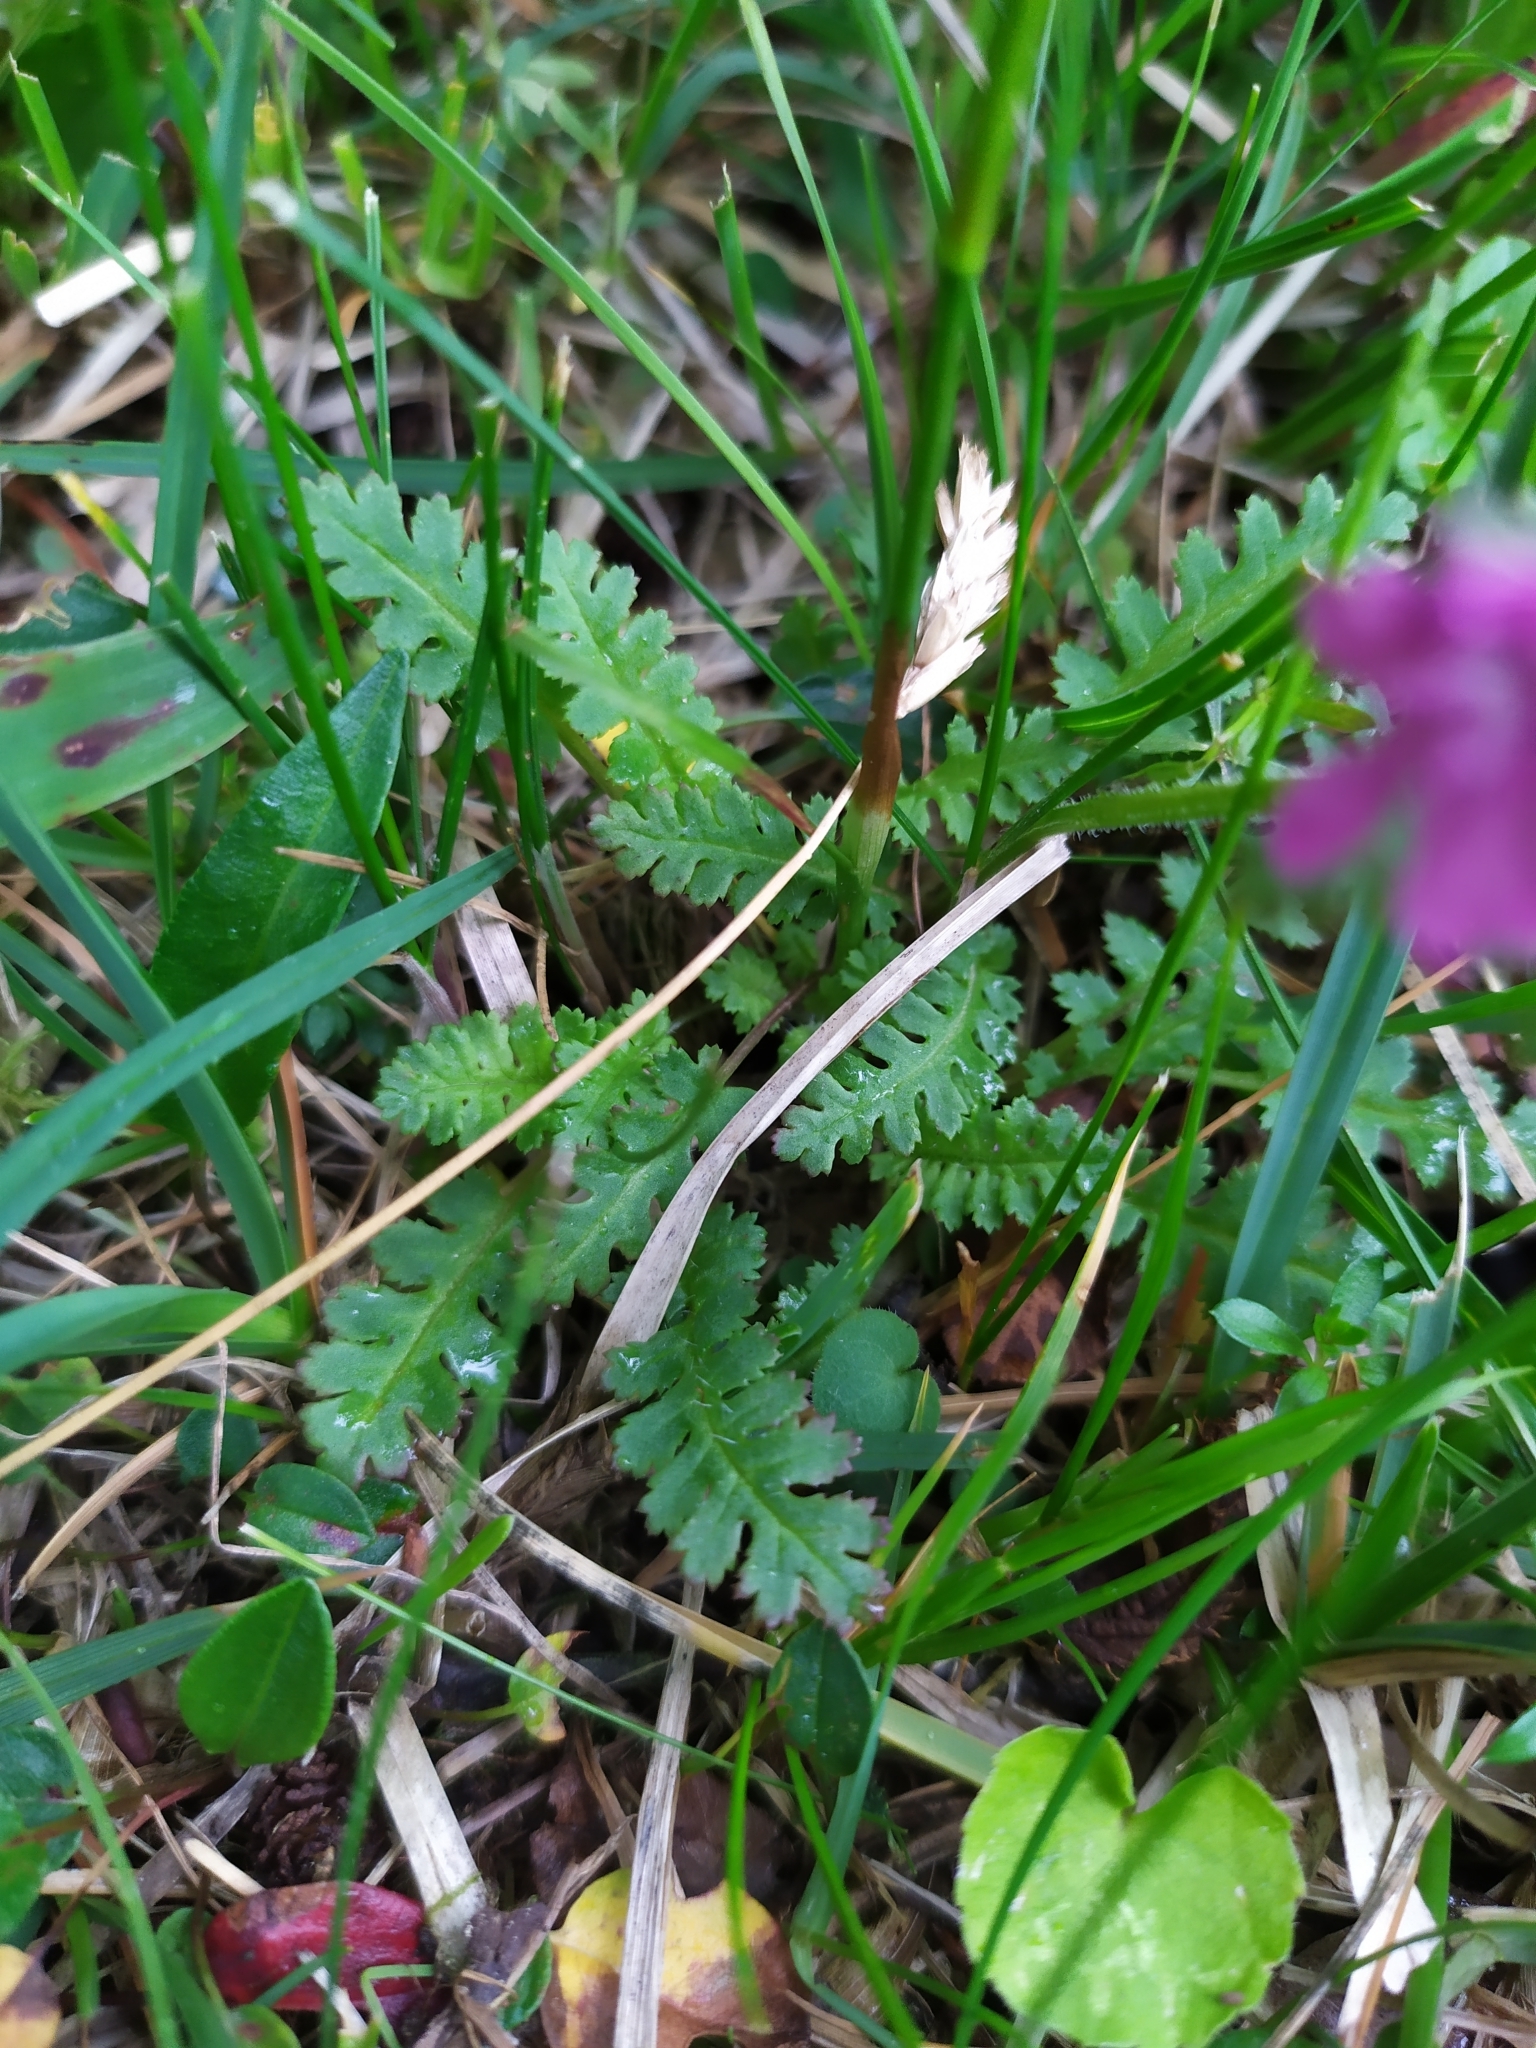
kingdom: Plantae
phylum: Tracheophyta
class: Magnoliopsida
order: Lamiales
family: Orobanchaceae
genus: Pedicularis
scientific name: Pedicularis verticillata
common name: Whorled lousewort
